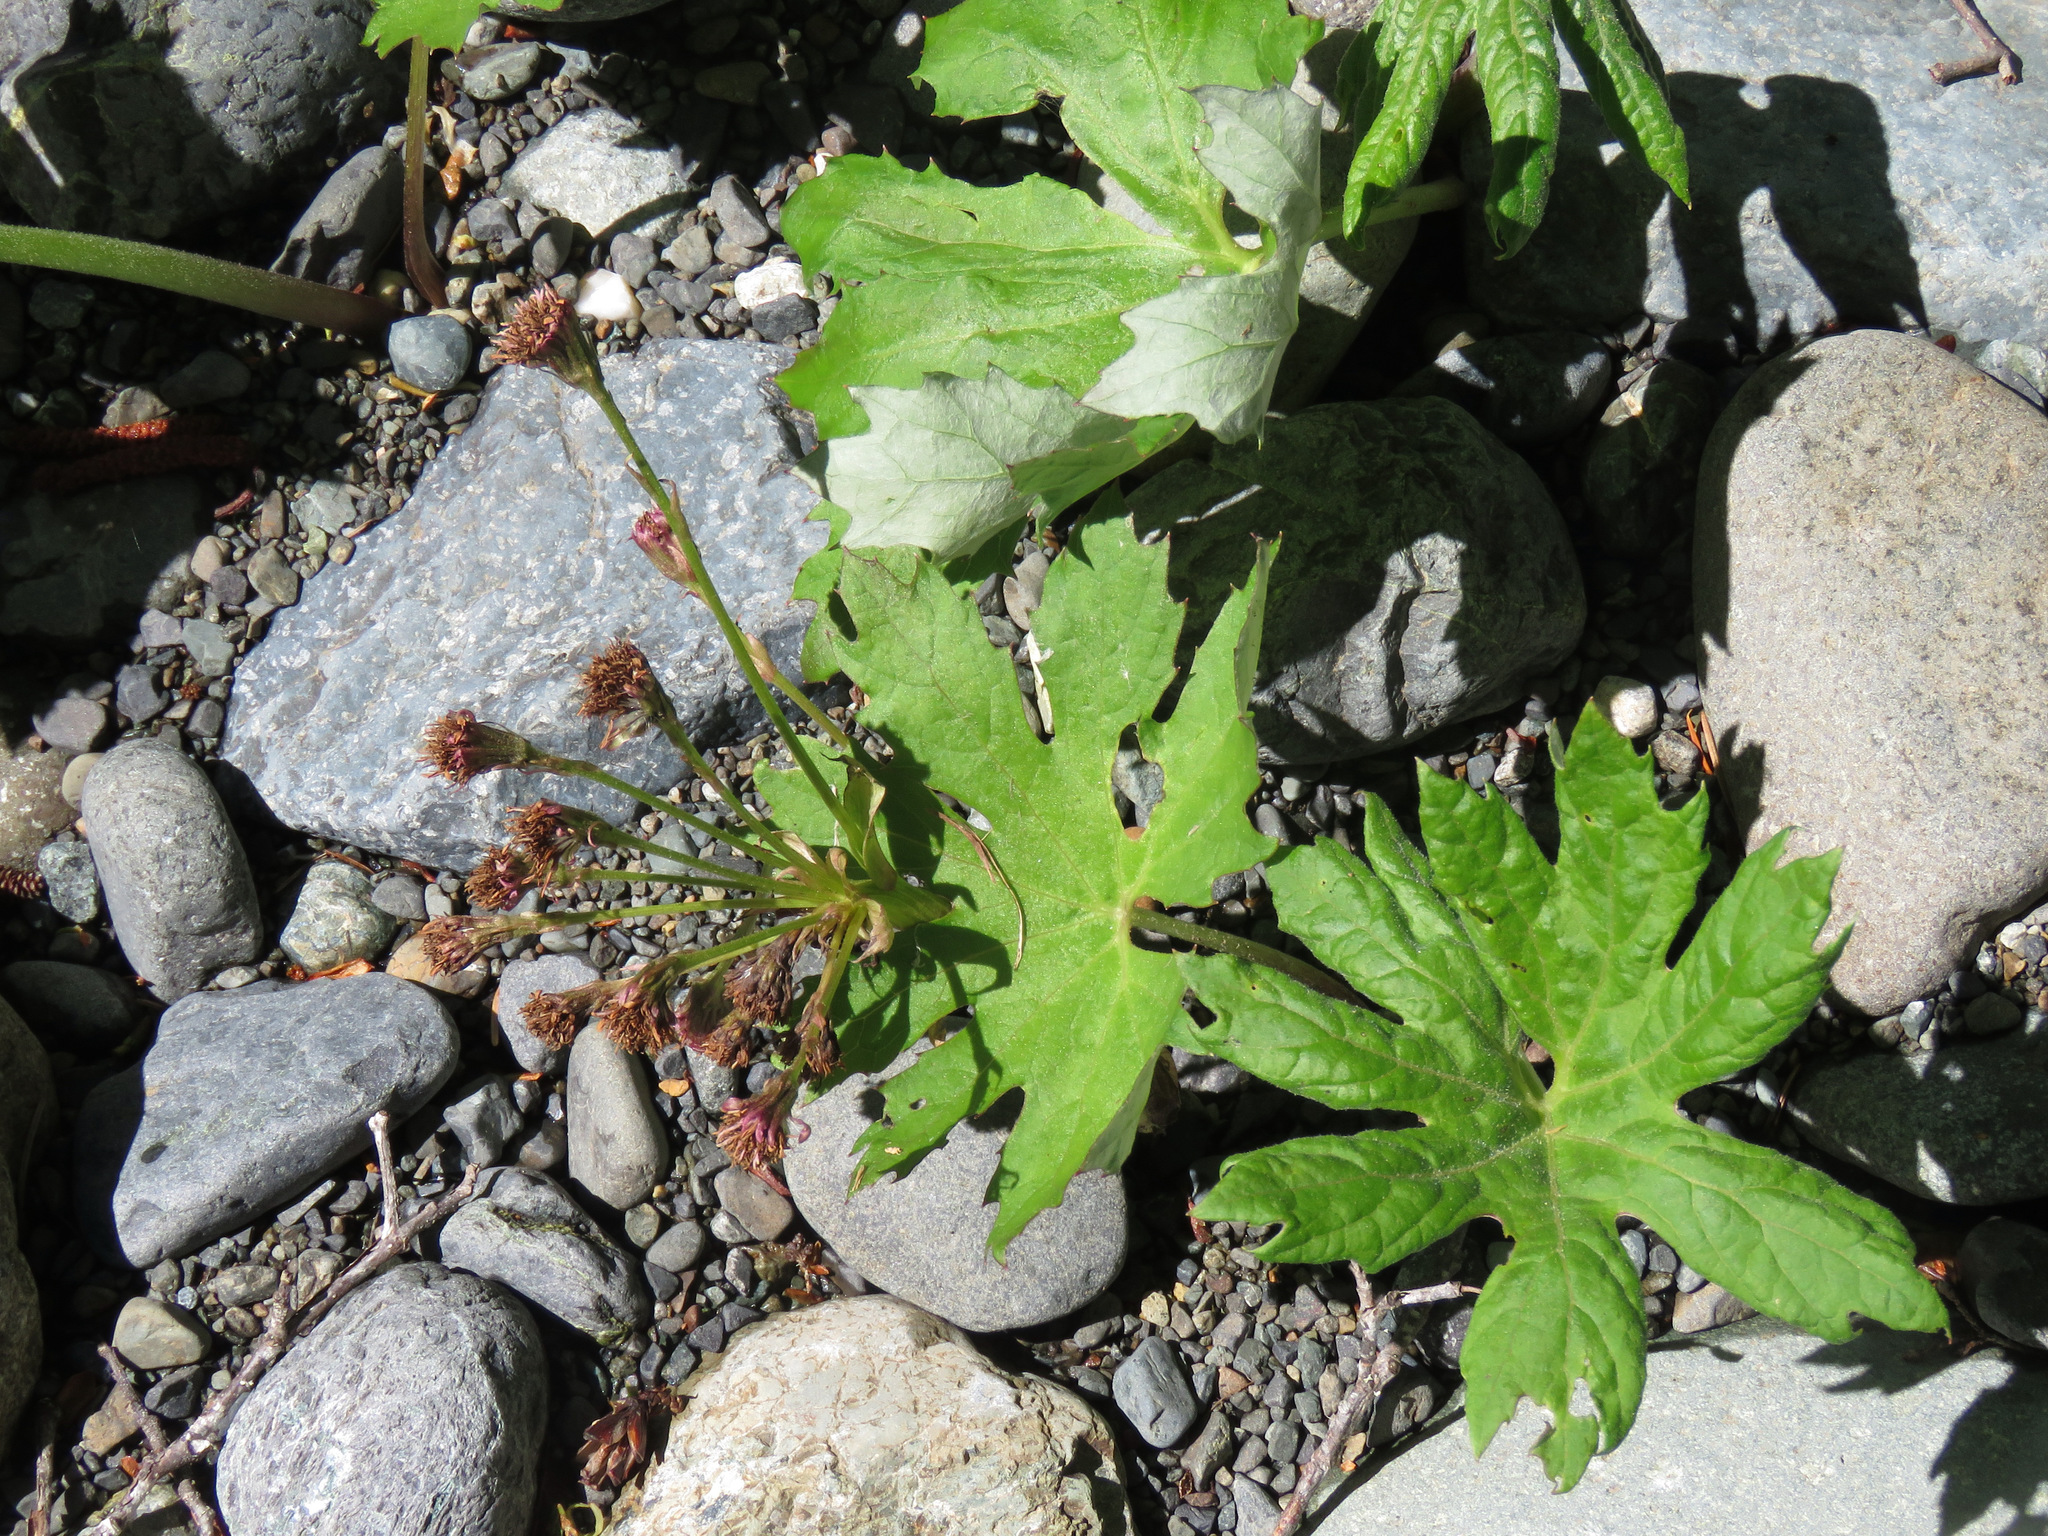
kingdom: Plantae
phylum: Tracheophyta
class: Magnoliopsida
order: Asterales
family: Asteraceae
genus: Petasites
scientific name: Petasites frigidus
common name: Arctic butterbur
